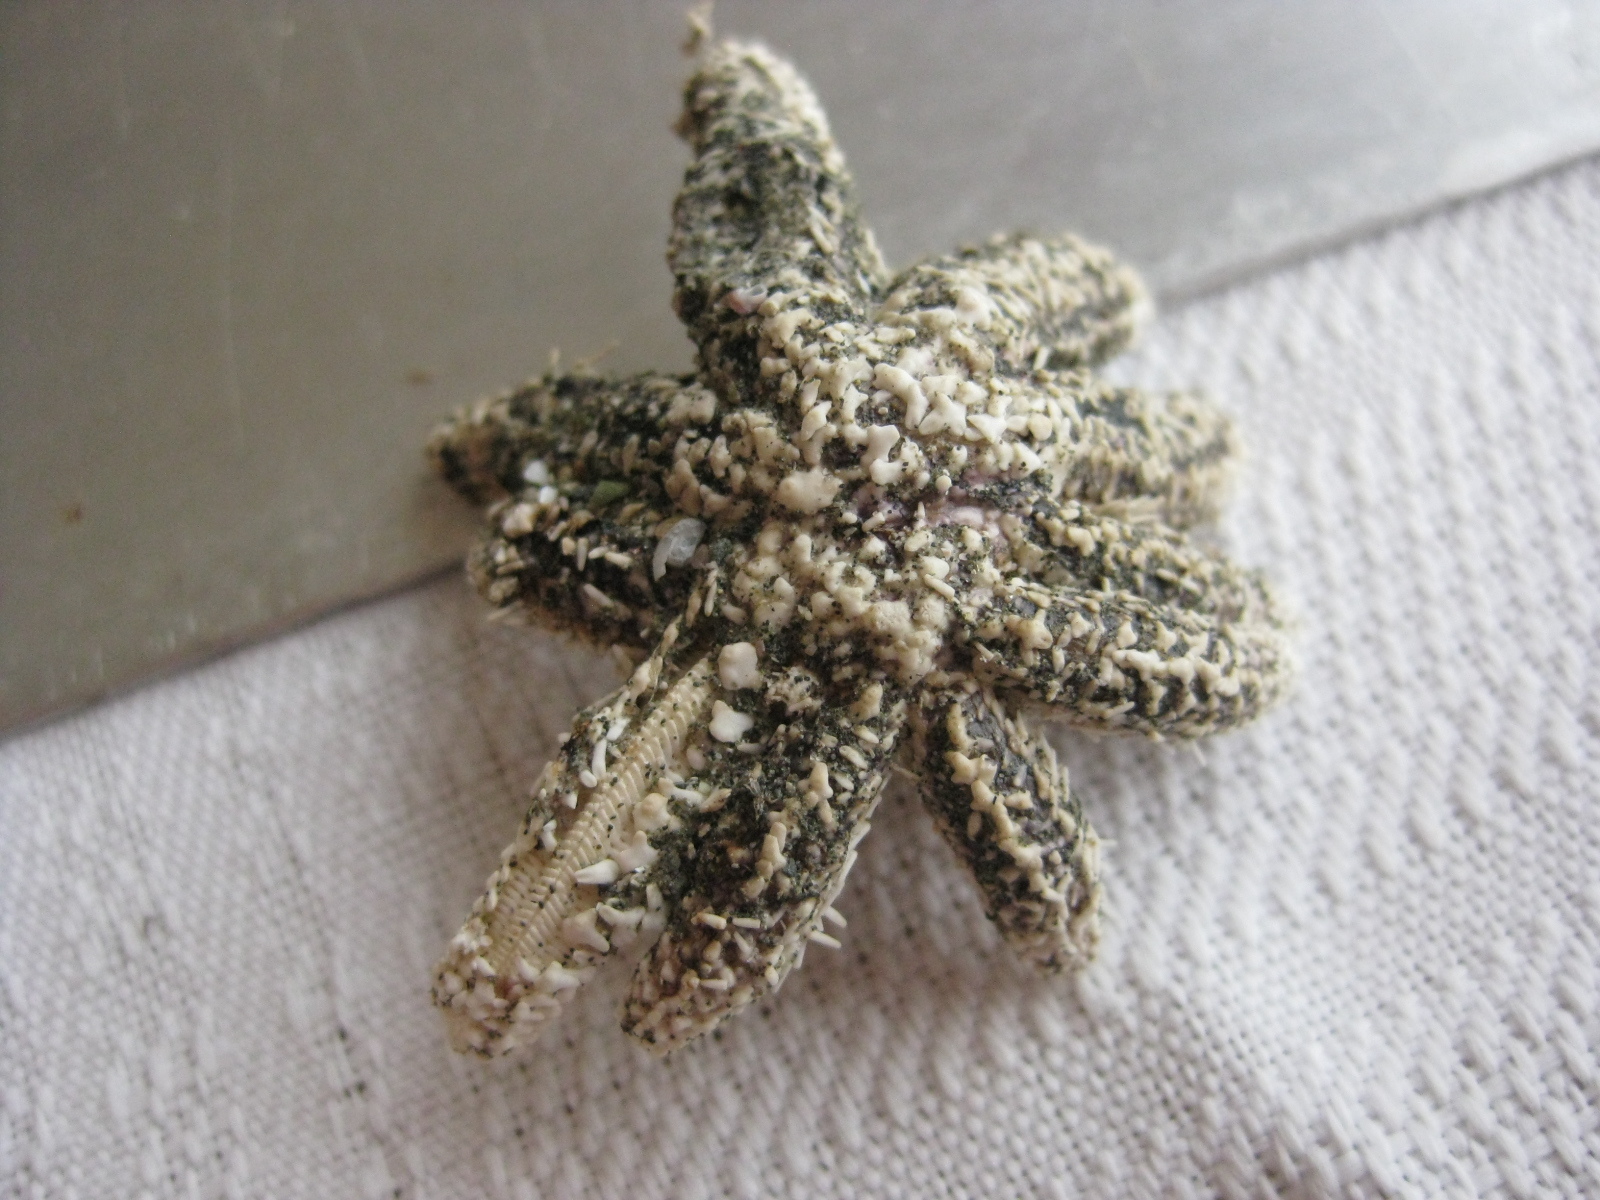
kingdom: Animalia
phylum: Echinodermata
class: Asteroidea
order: Forcipulatida
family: Asteriidae
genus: Coscinasterias
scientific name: Coscinasterias muricata
